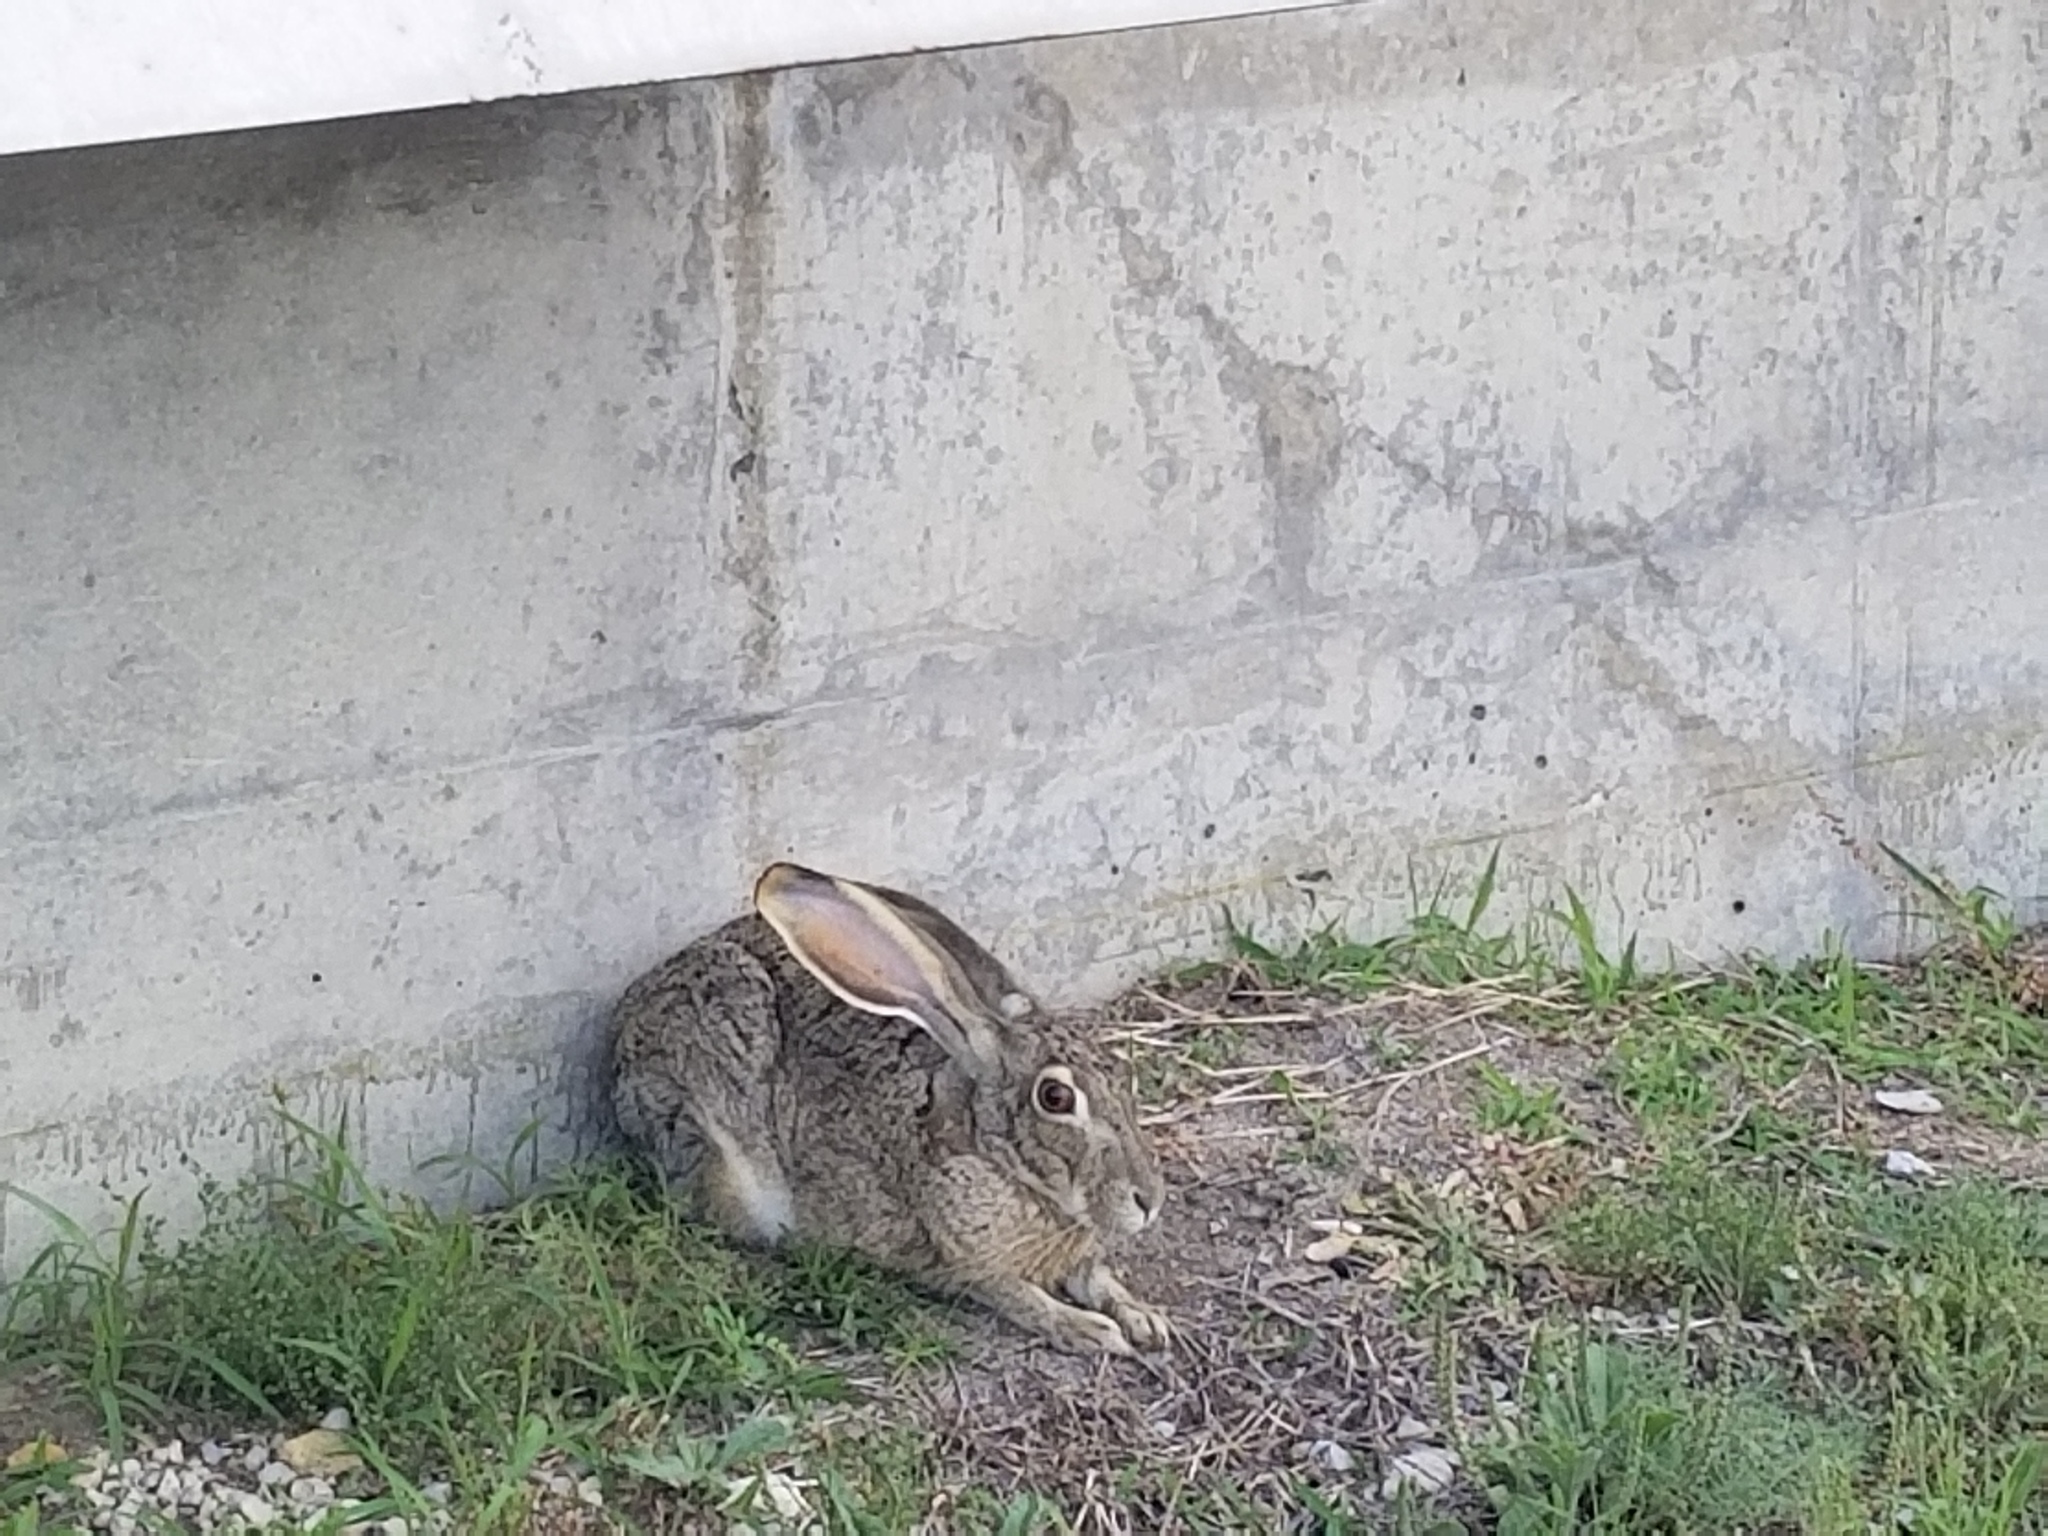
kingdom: Animalia
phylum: Chordata
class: Mammalia
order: Lagomorpha
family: Leporidae
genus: Lepus
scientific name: Lepus californicus
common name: Black-tailed jackrabbit
